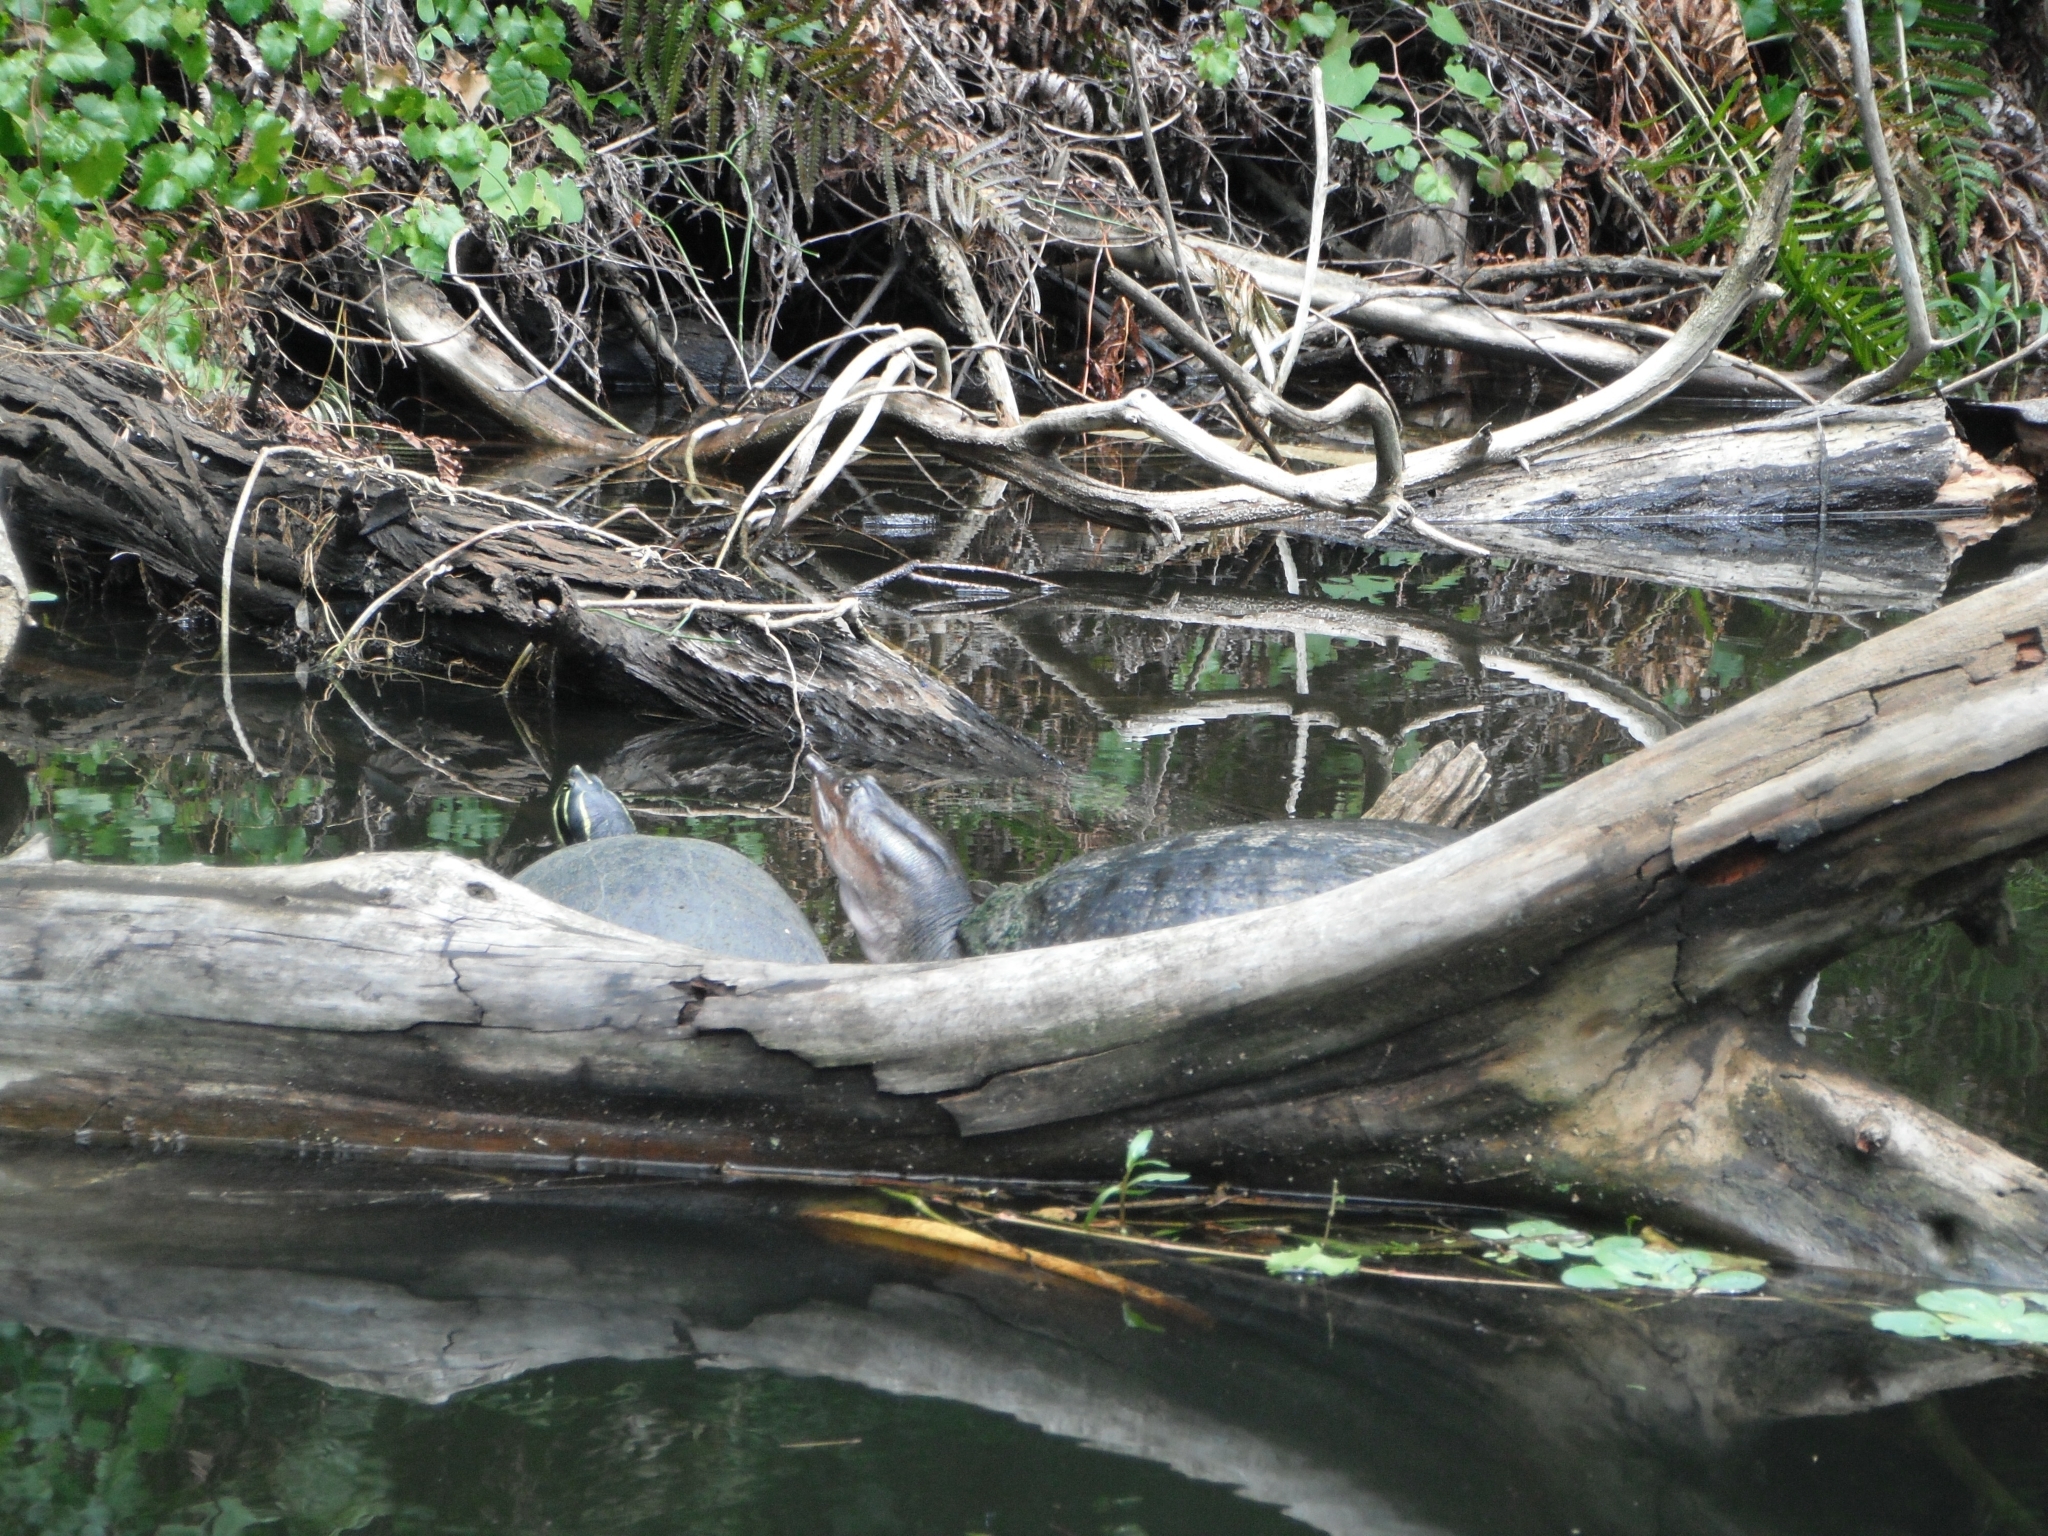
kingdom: Animalia
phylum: Chordata
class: Testudines
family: Trionychidae
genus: Apalone
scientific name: Apalone ferox
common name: Florida softshell turtle
